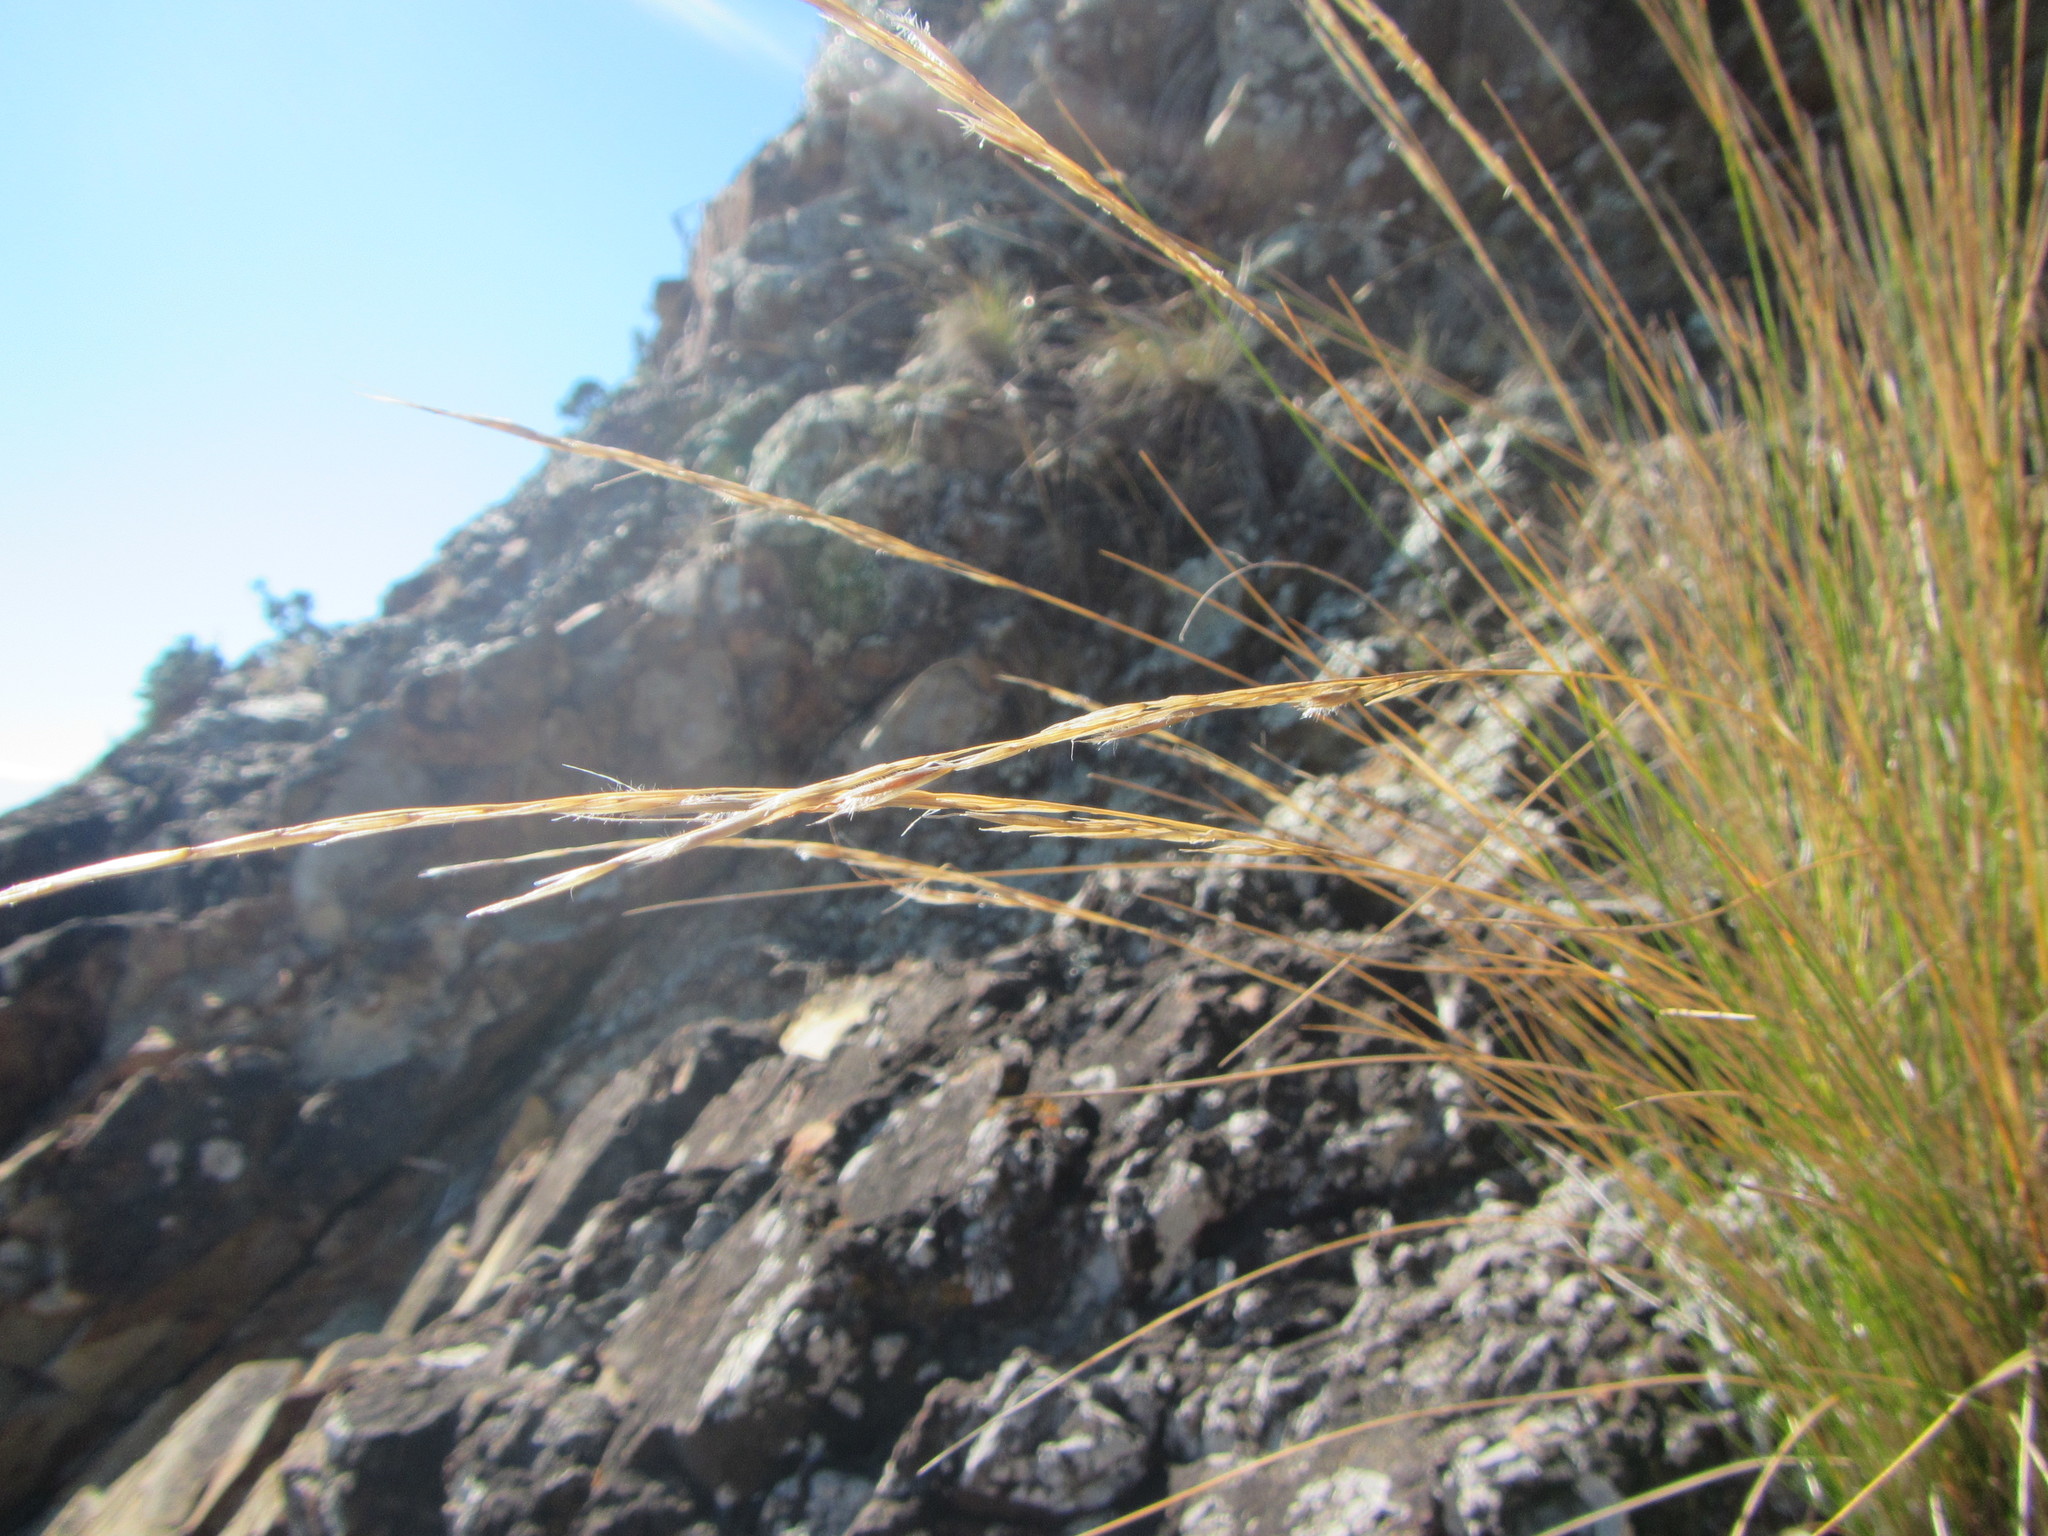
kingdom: Plantae
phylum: Tracheophyta
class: Liliopsida
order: Poales
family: Poaceae
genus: Austrostipa
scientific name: Austrostipa stipoides
